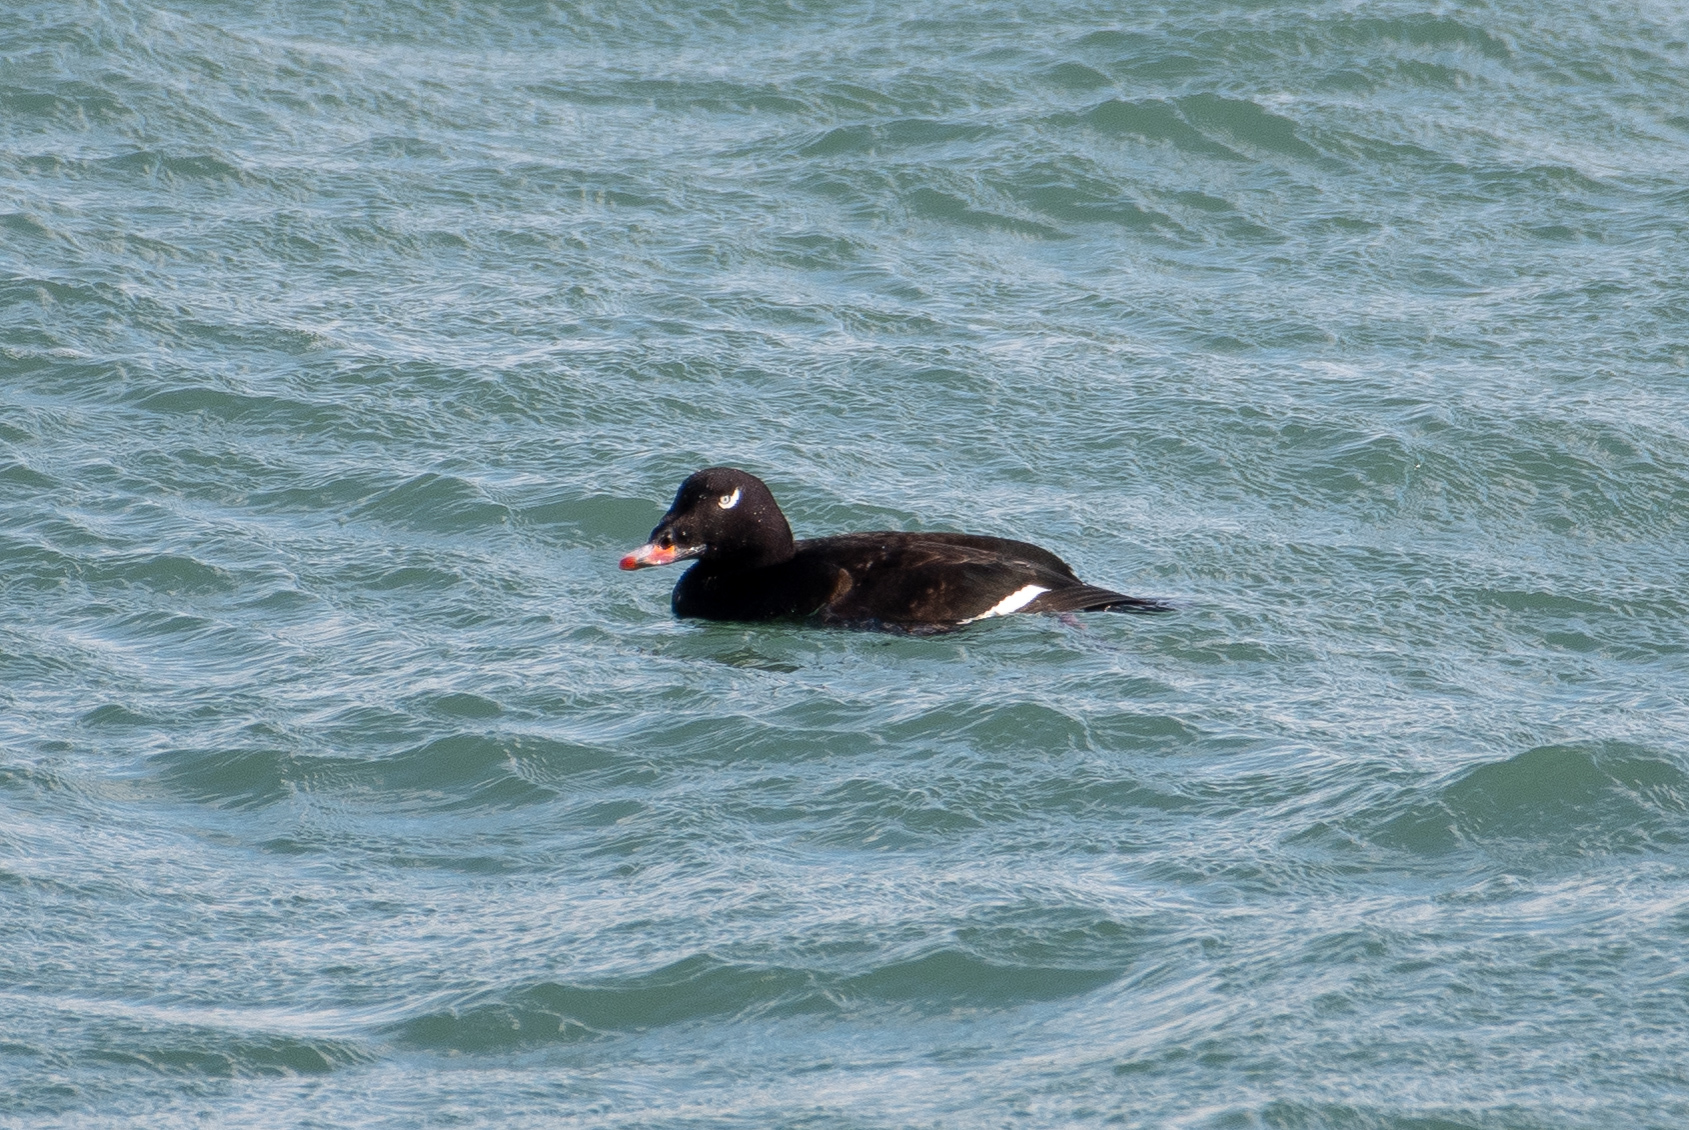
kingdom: Animalia
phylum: Chordata
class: Aves
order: Anseriformes
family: Anatidae
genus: Melanitta
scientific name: Melanitta deglandi
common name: White-winged scoter
